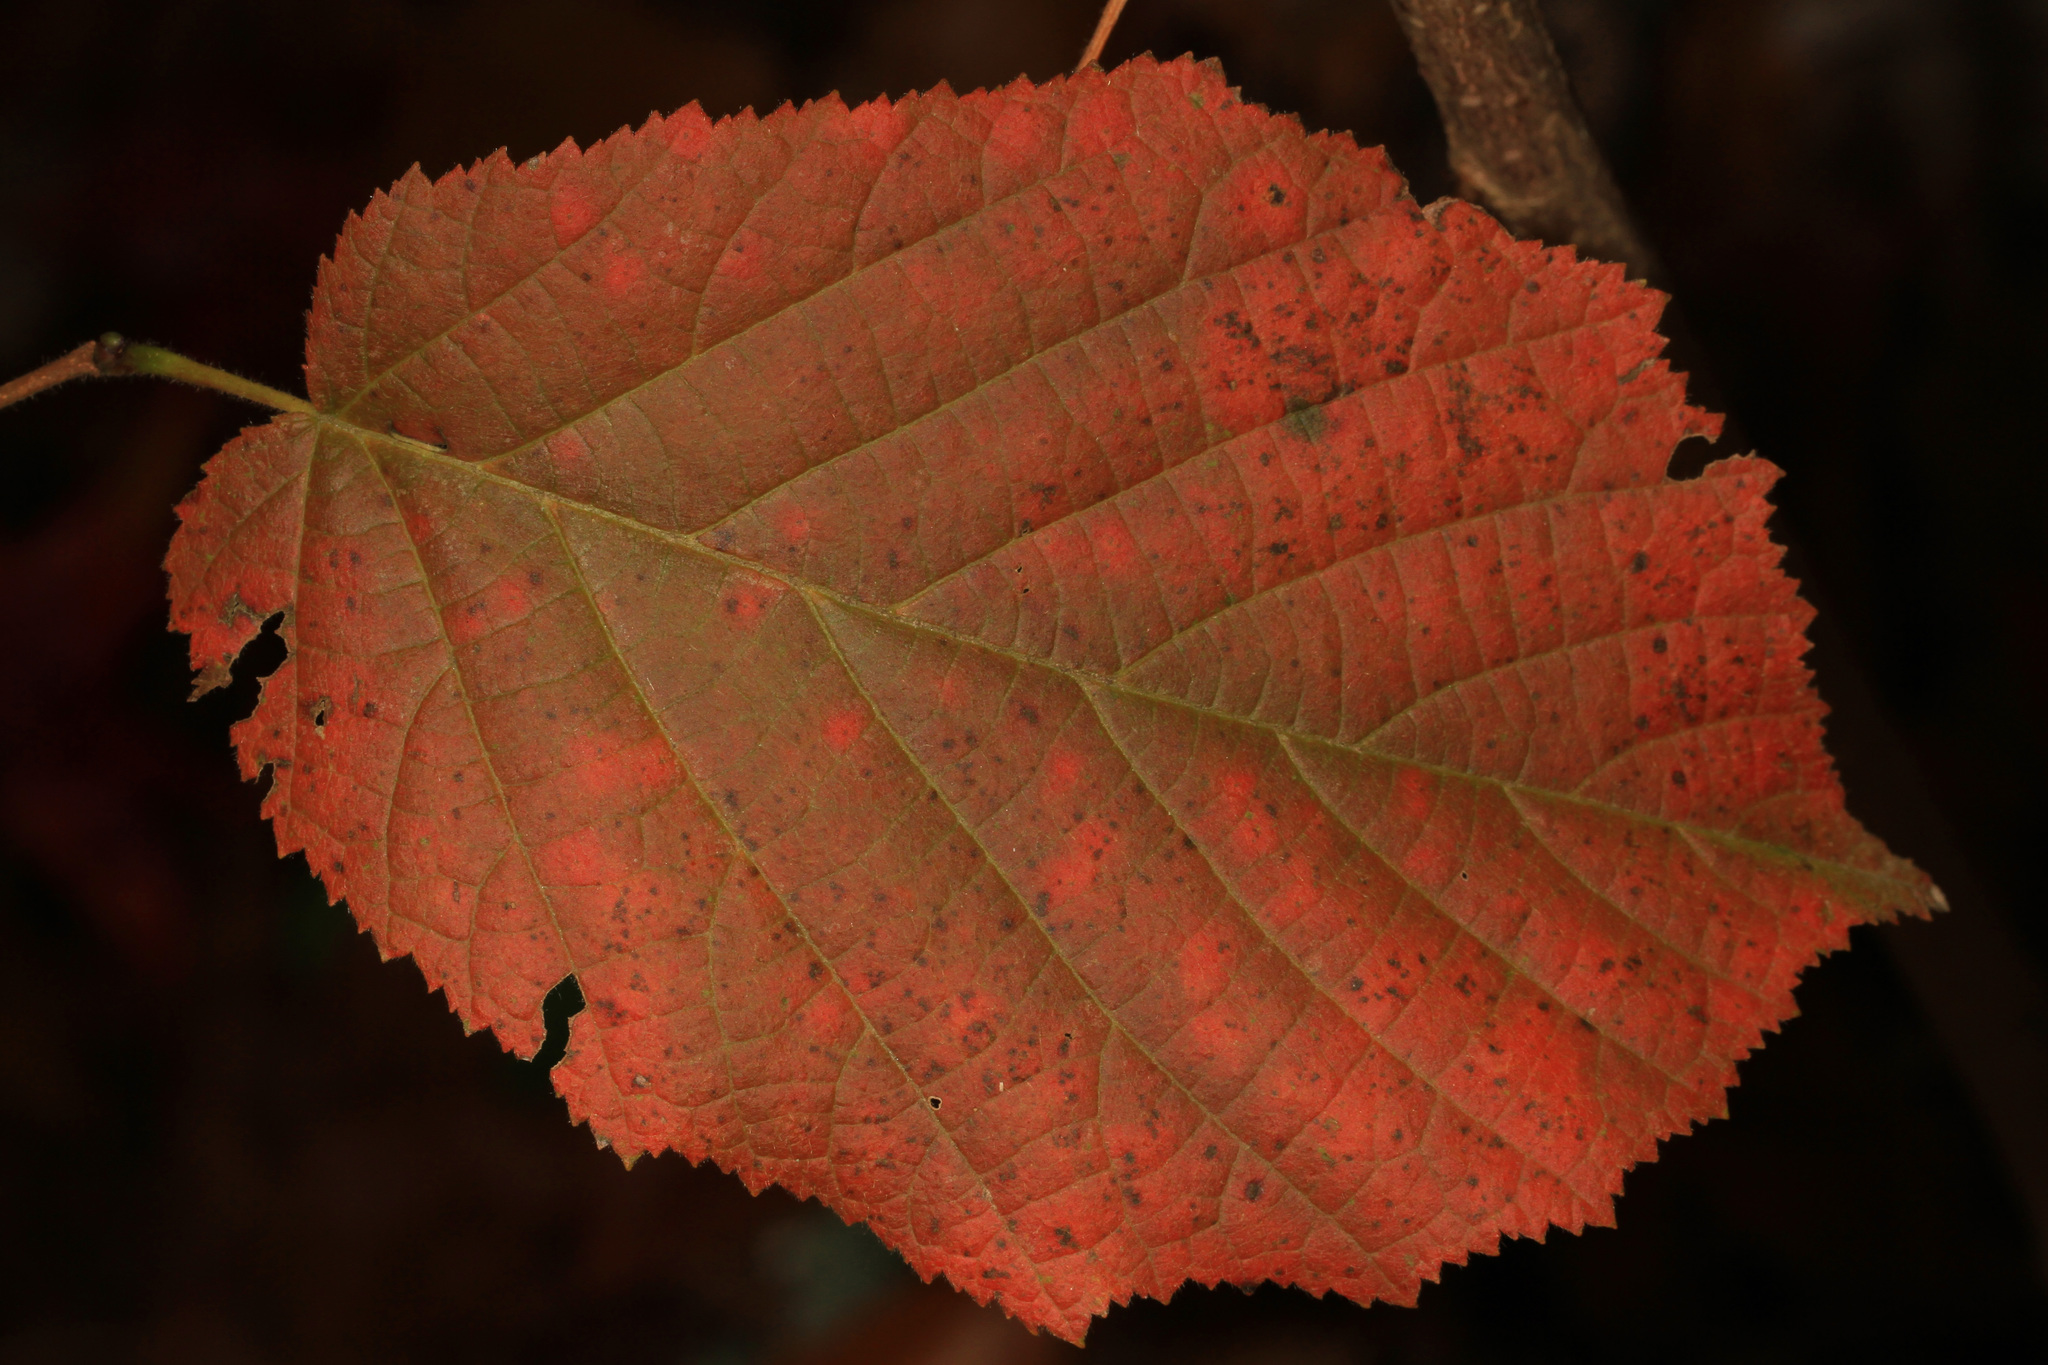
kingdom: Plantae
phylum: Tracheophyta
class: Magnoliopsida
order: Fagales
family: Betulaceae
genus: Corylus
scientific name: Corylus americana
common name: American hazel
